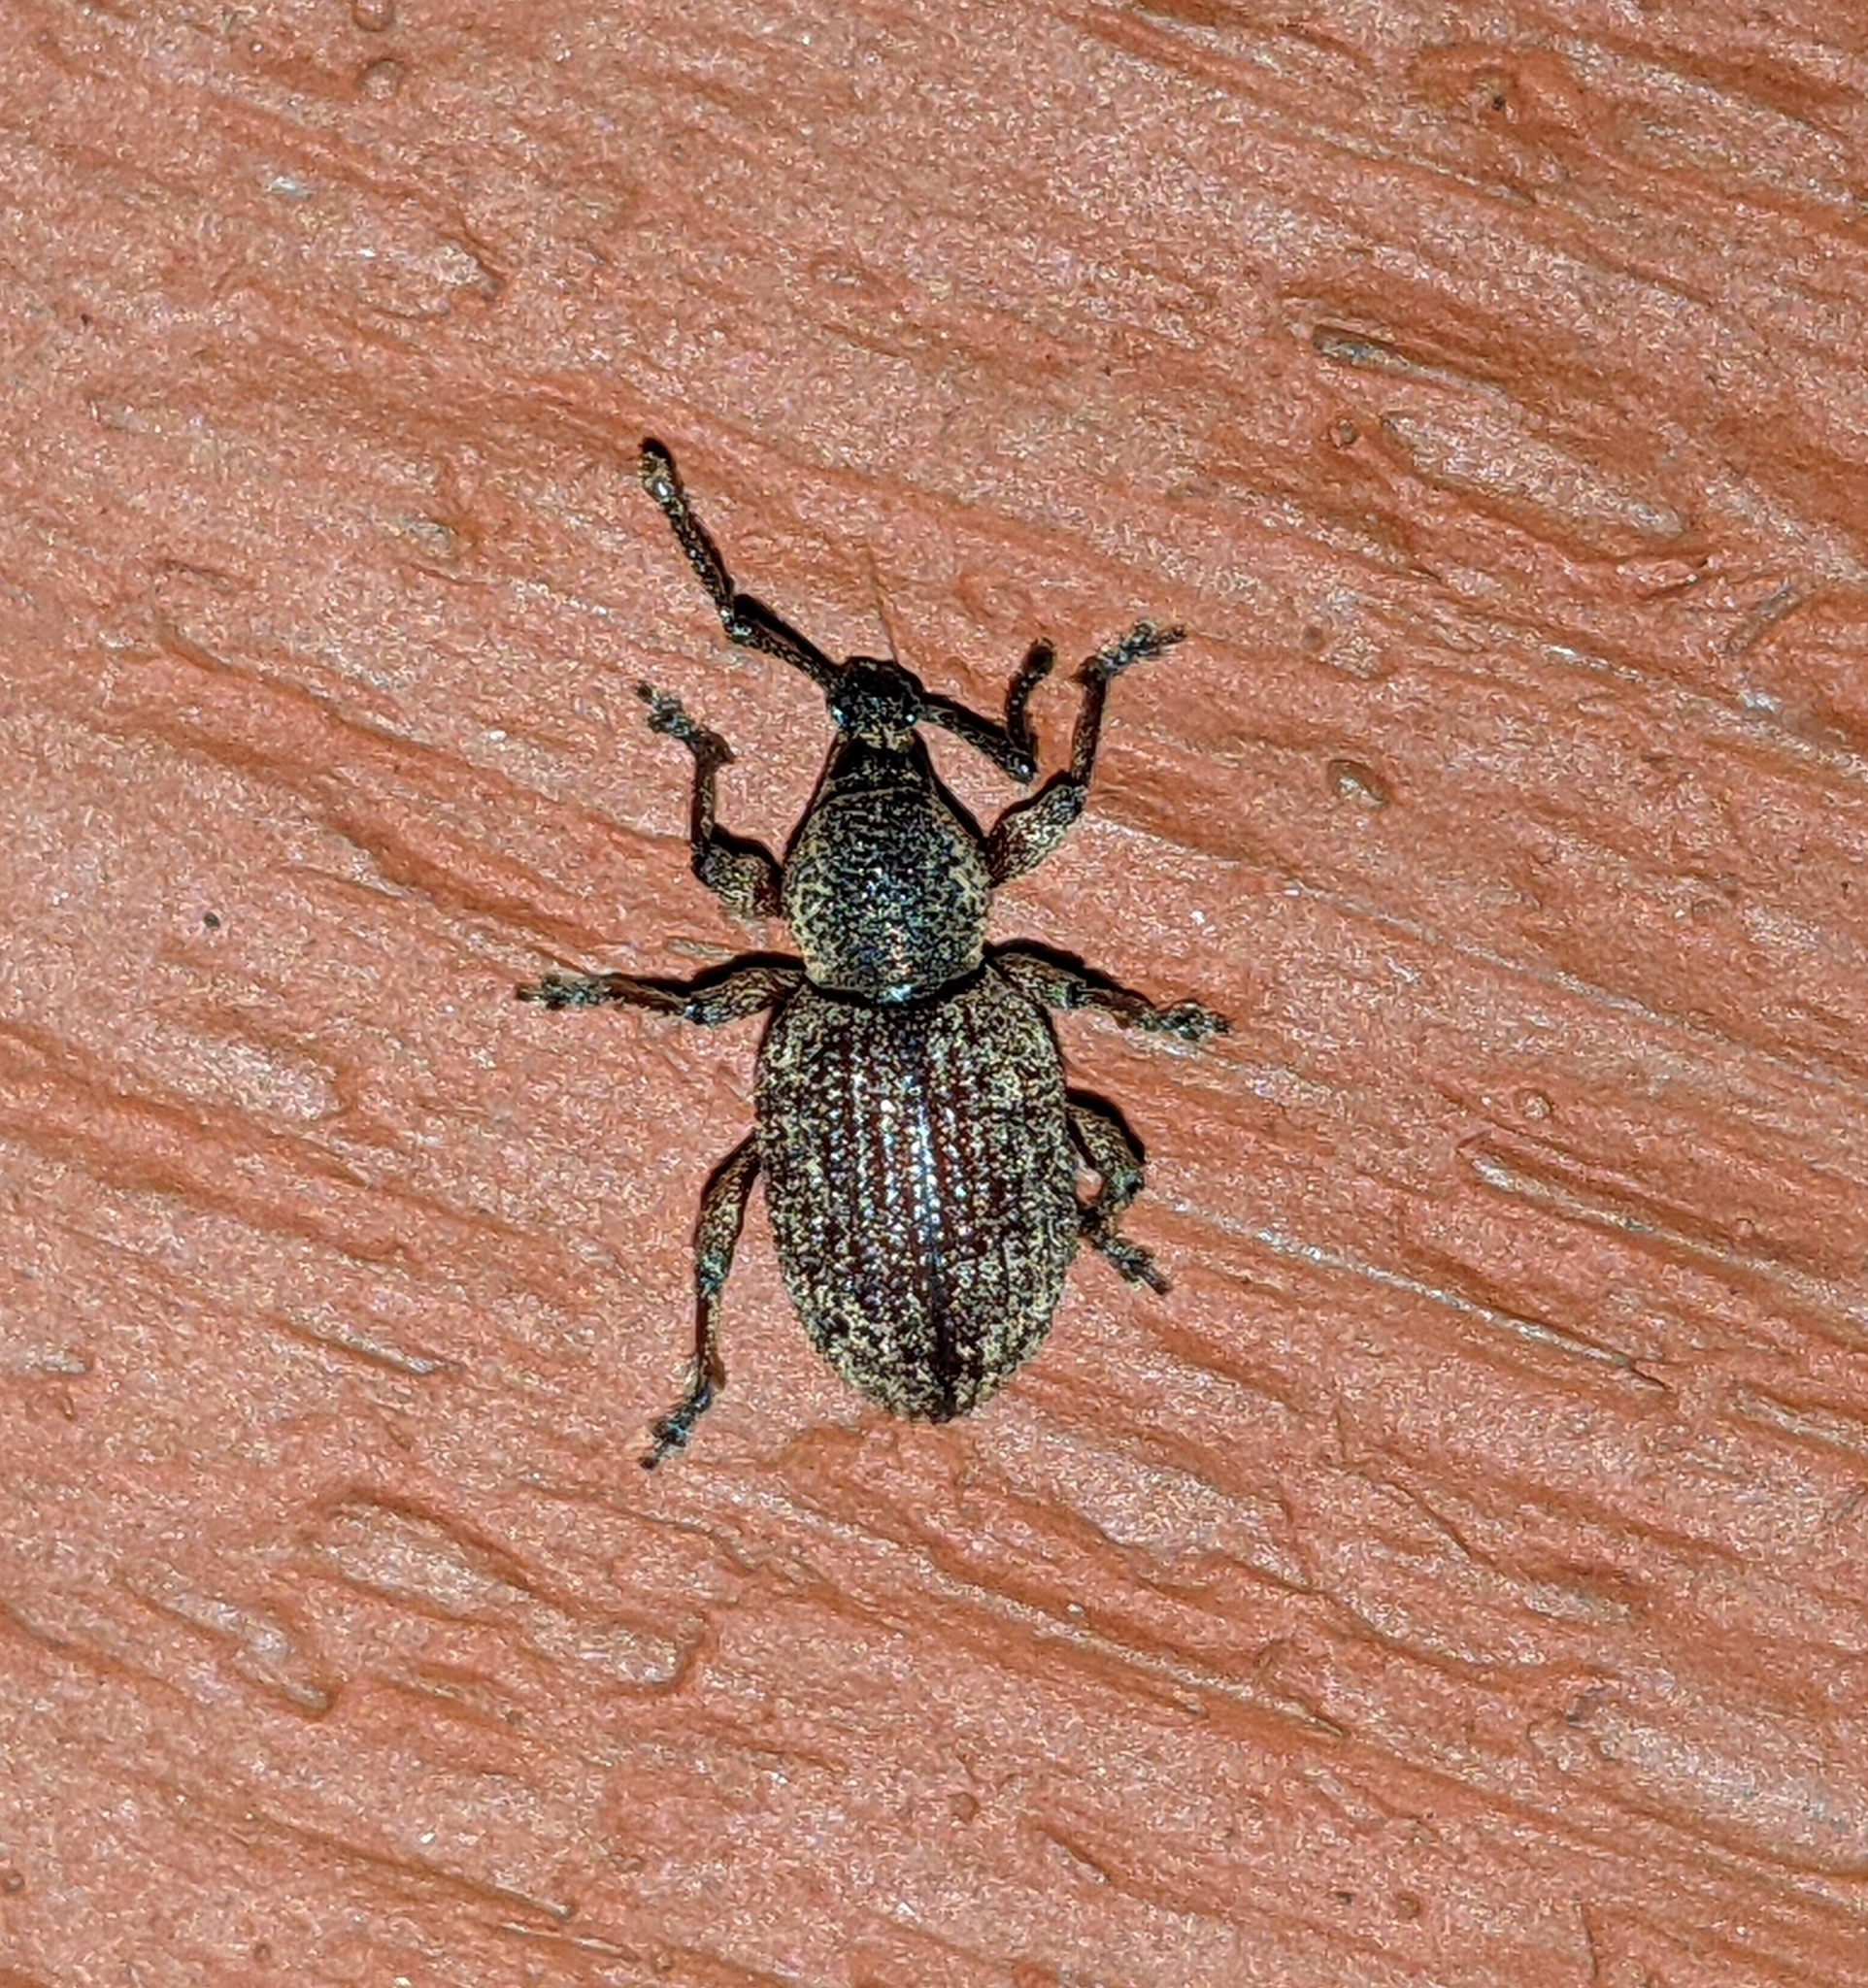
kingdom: Animalia
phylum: Arthropoda
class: Insecta
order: Coleoptera
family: Curculionidae
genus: Otiorhynchus
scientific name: Otiorhynchus singularis
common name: Clay-coloured weevil
